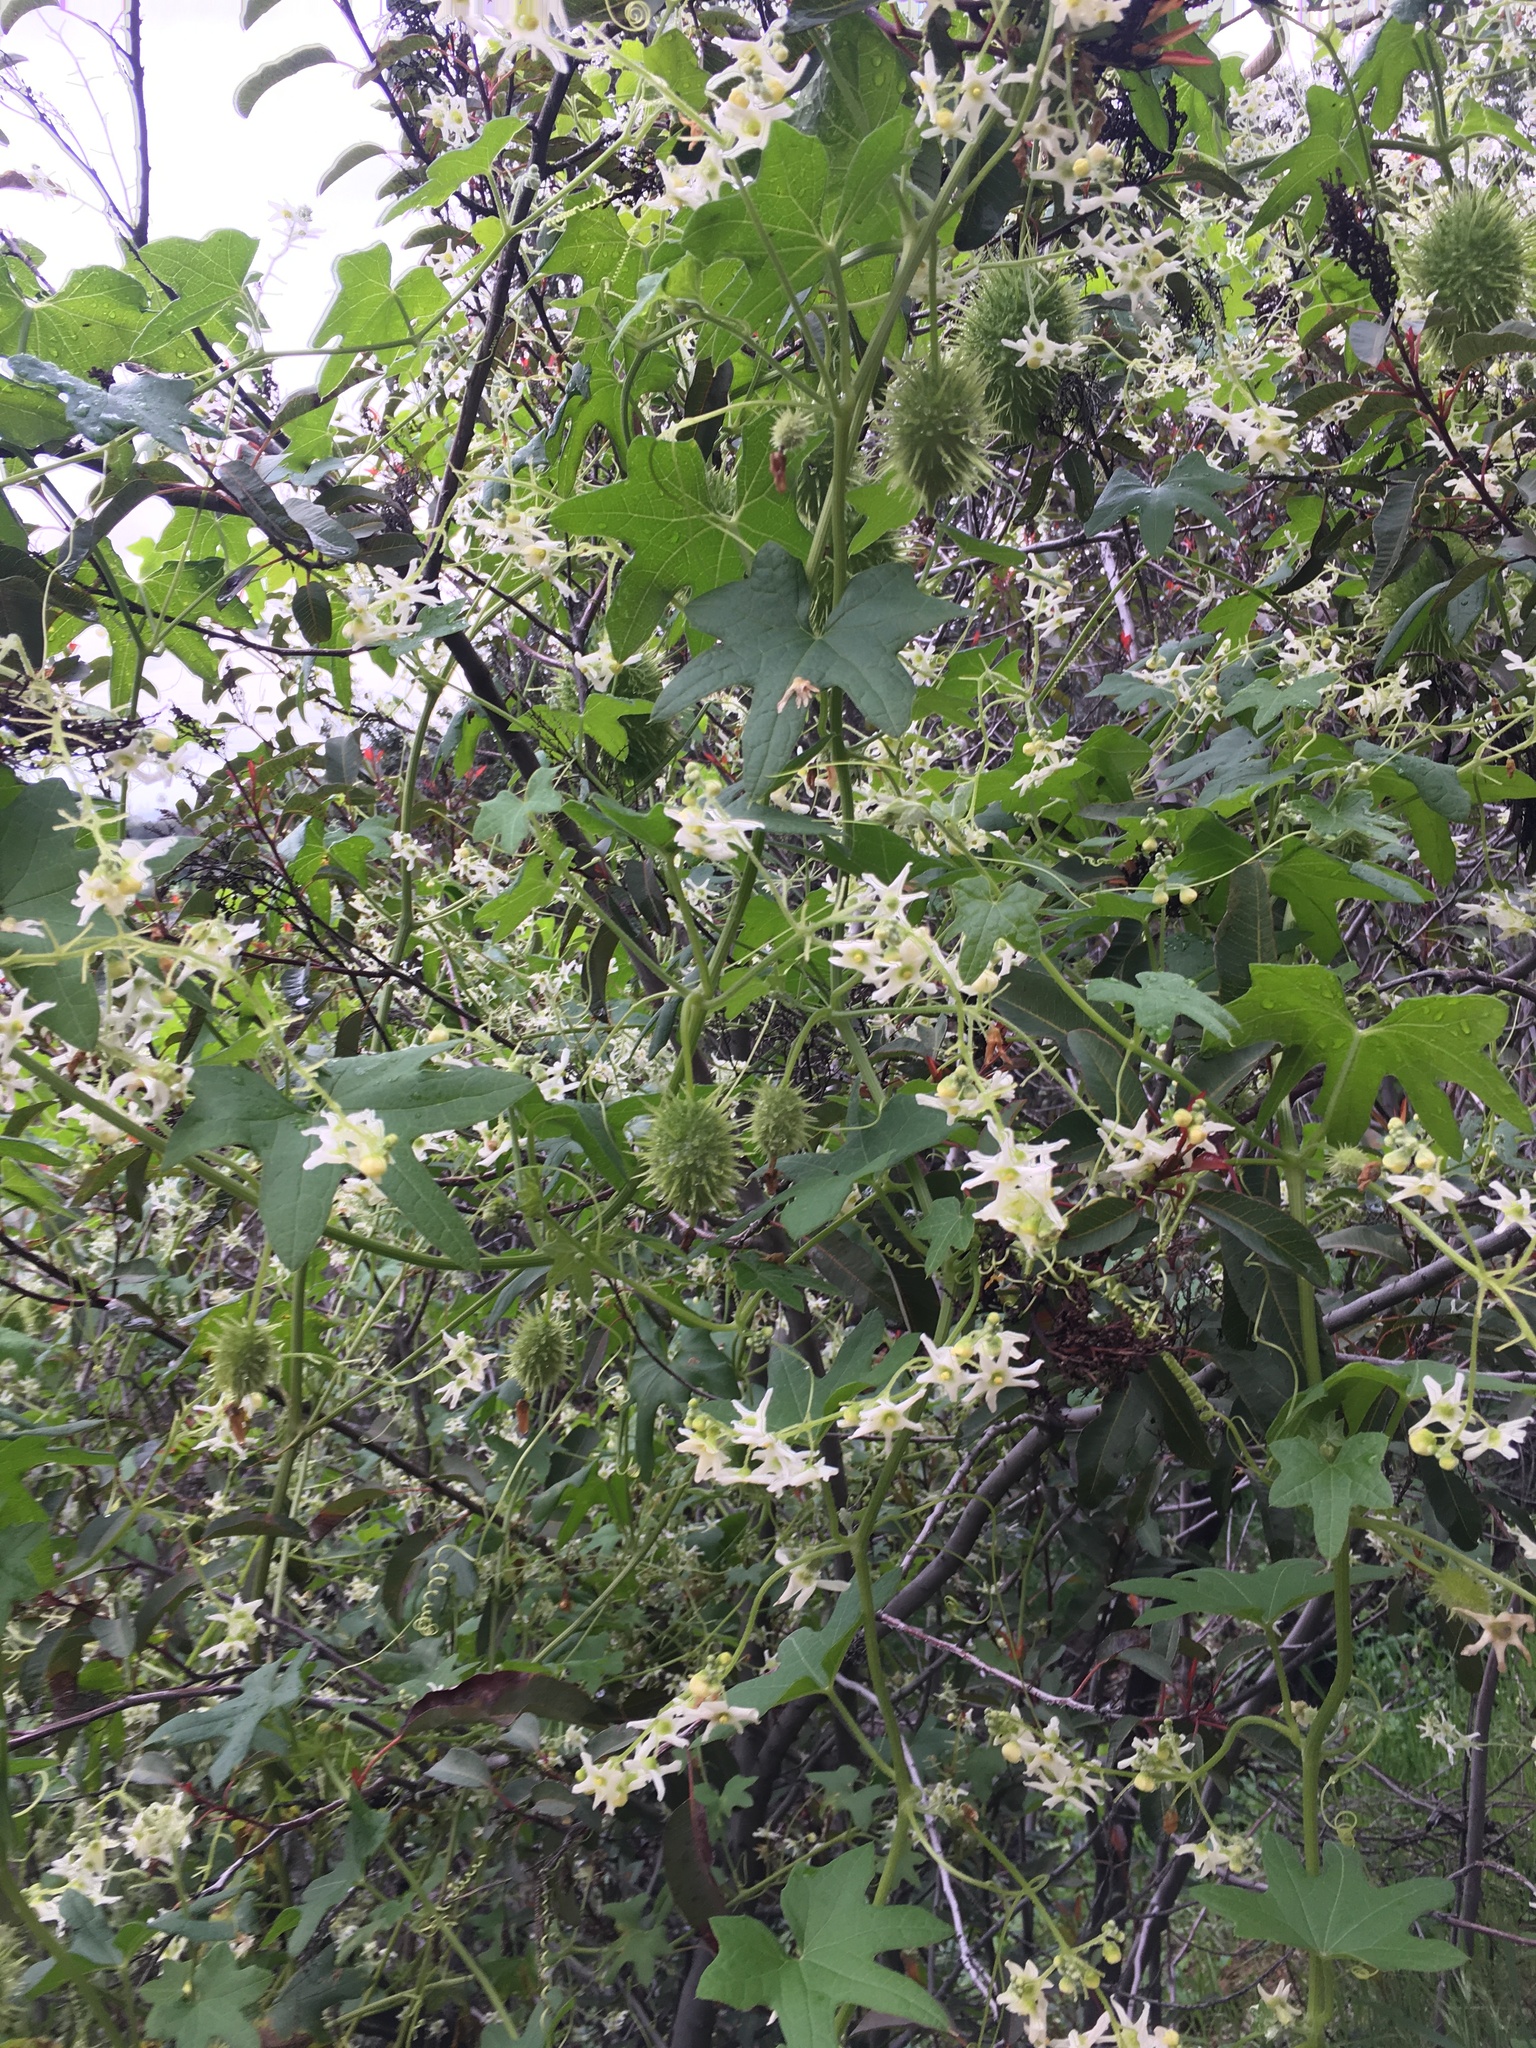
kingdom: Plantae
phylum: Tracheophyta
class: Magnoliopsida
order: Cucurbitales
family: Cucurbitaceae
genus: Marah
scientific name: Marah macrocarpa
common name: Cucamonga manroot
